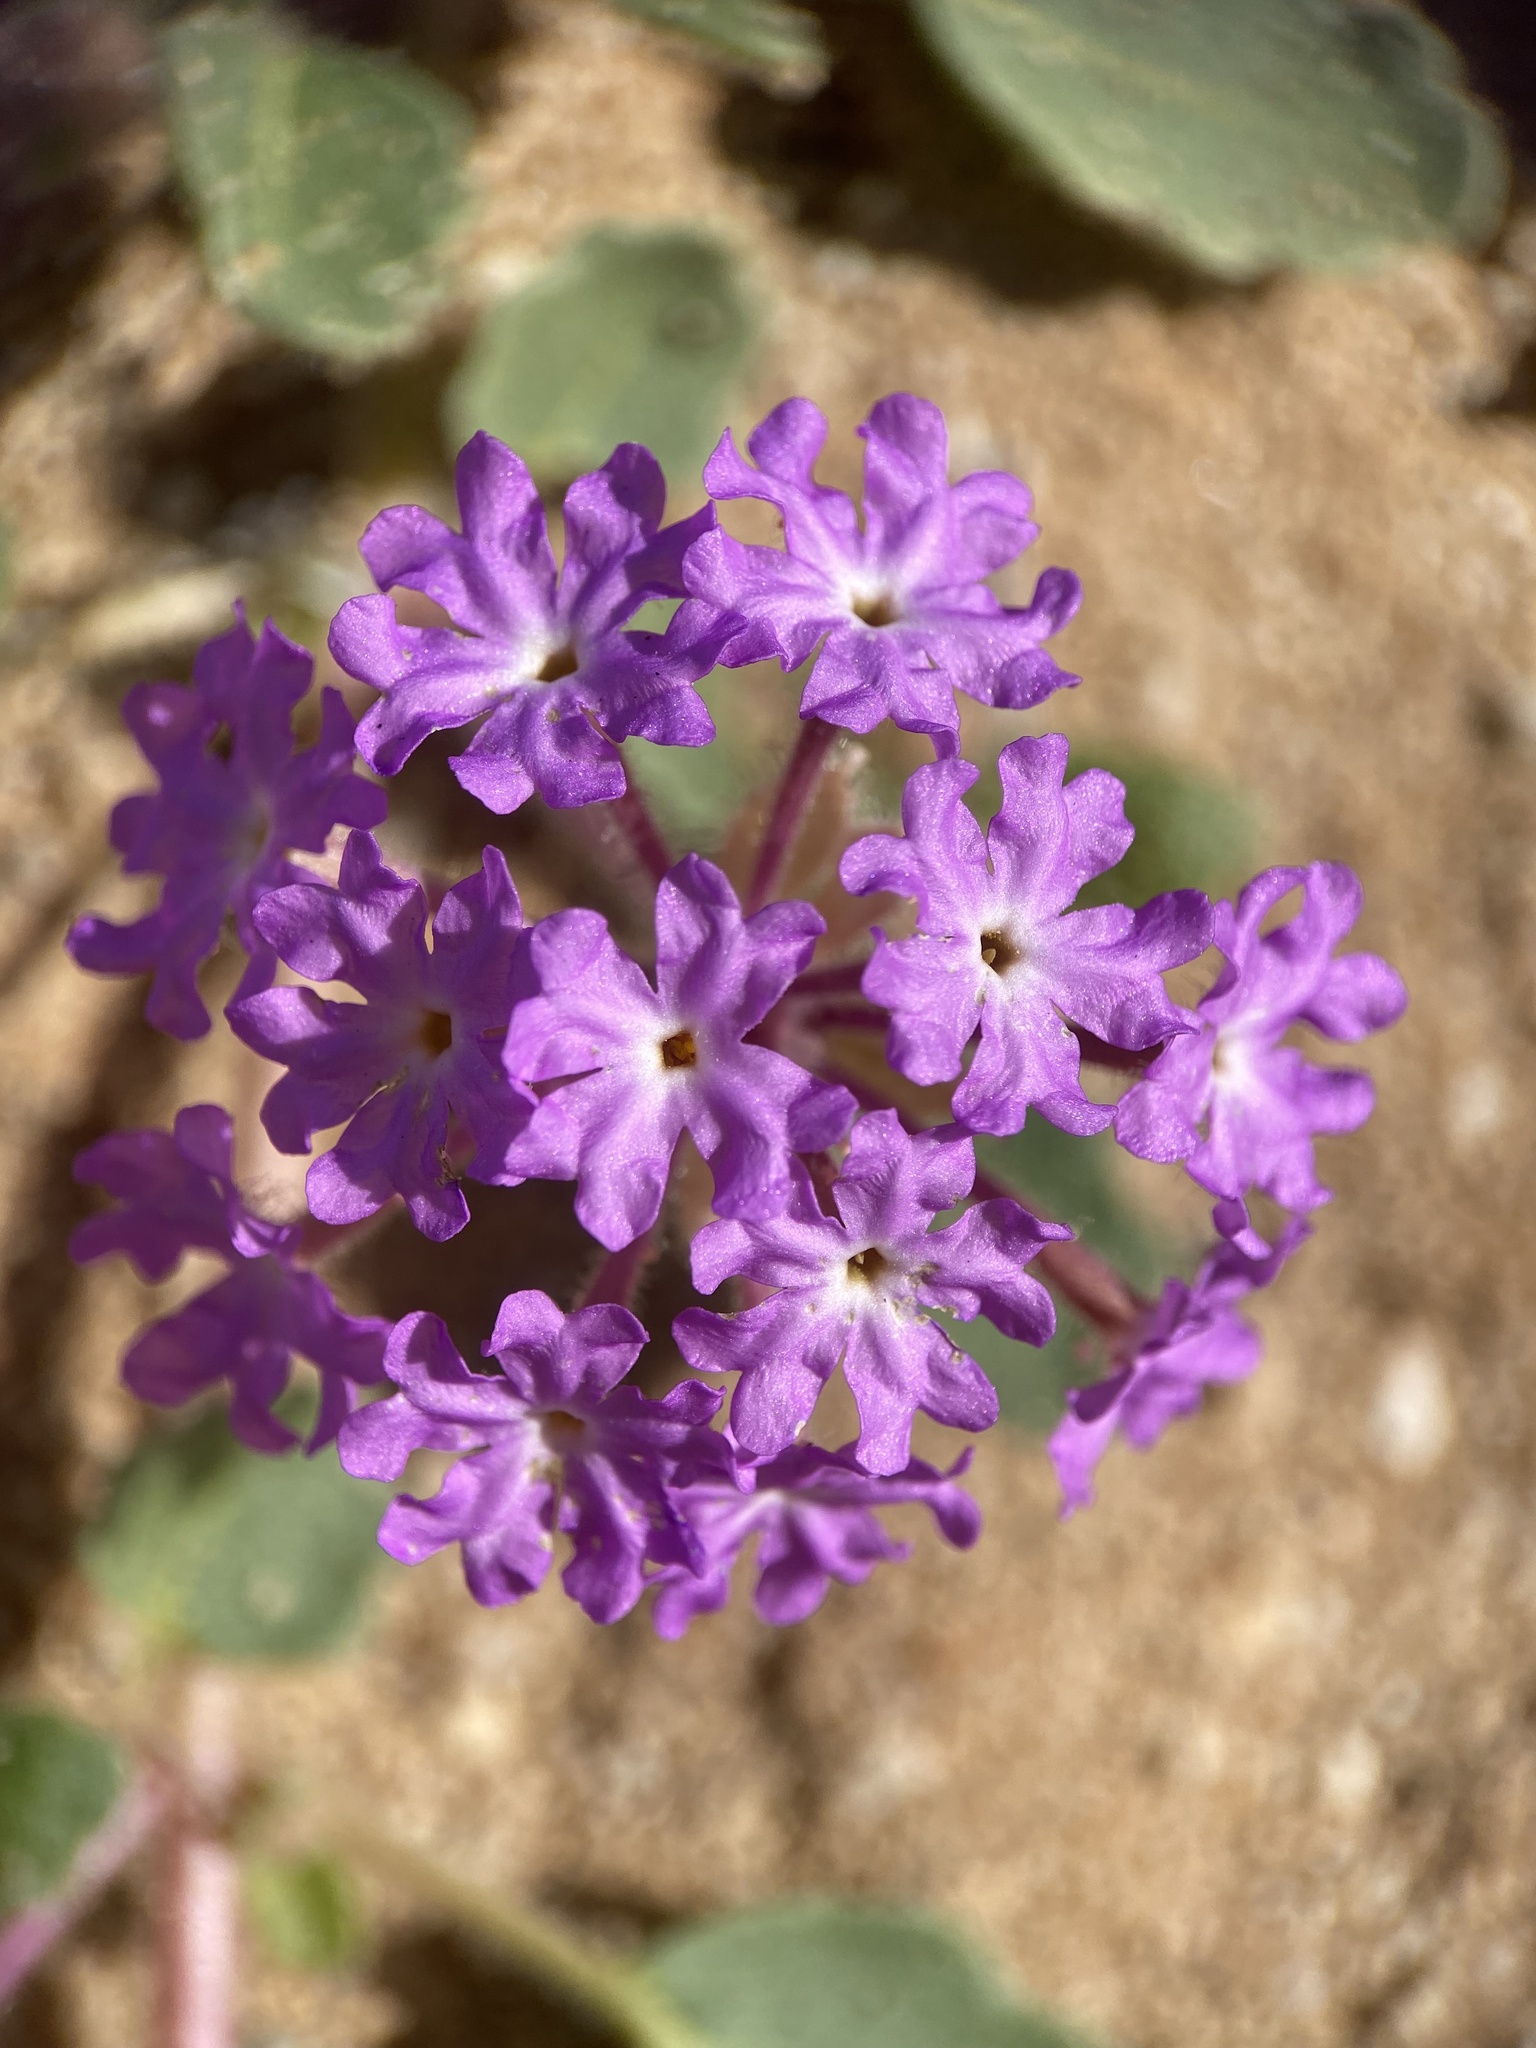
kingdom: Plantae
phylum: Tracheophyta
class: Magnoliopsida
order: Caryophyllales
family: Nyctaginaceae
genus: Abronia
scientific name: Abronia villosa
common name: Desert sand-verbena
